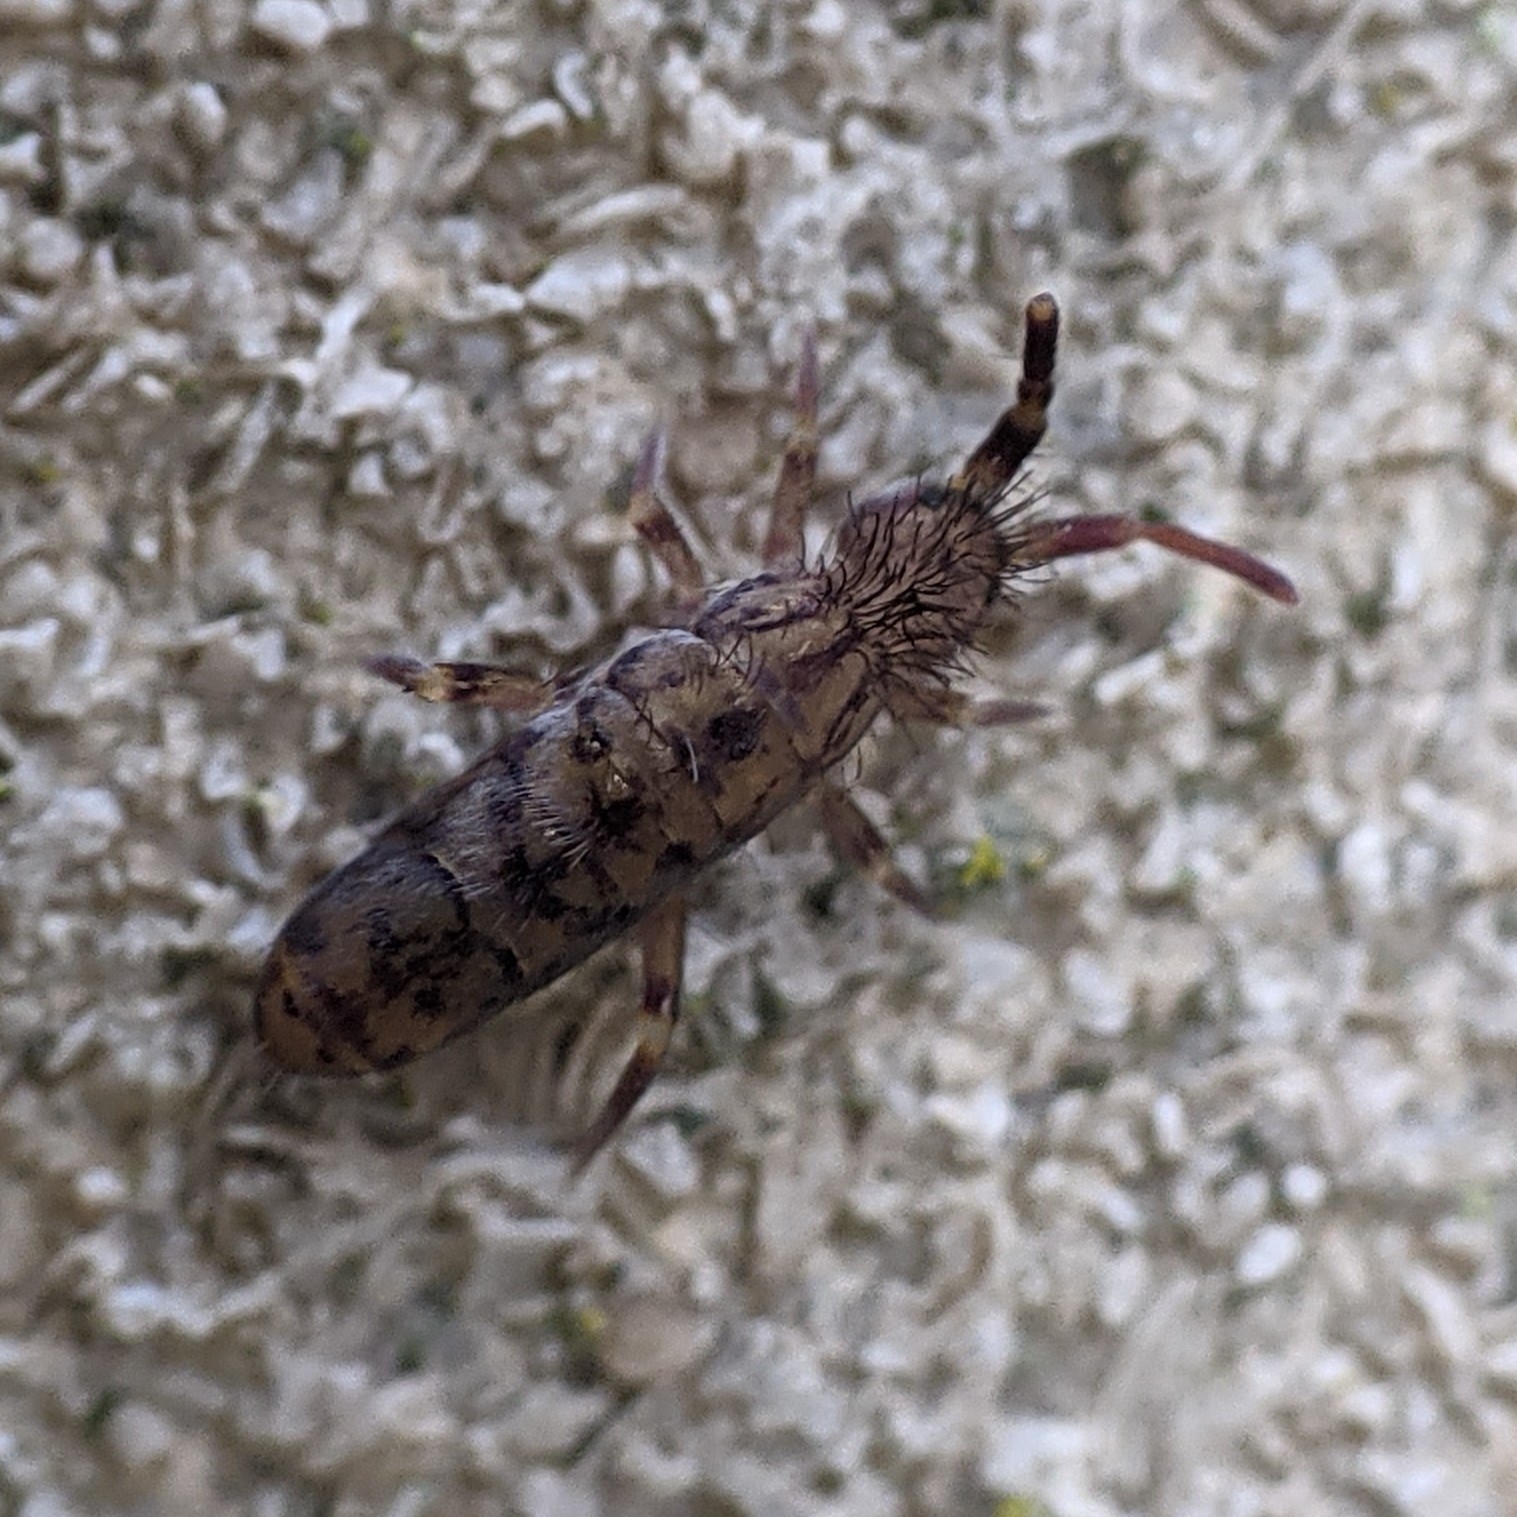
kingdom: Animalia
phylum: Arthropoda
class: Collembola
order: Entomobryomorpha
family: Orchesellidae
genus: Orchesella
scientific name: Orchesella villosa
